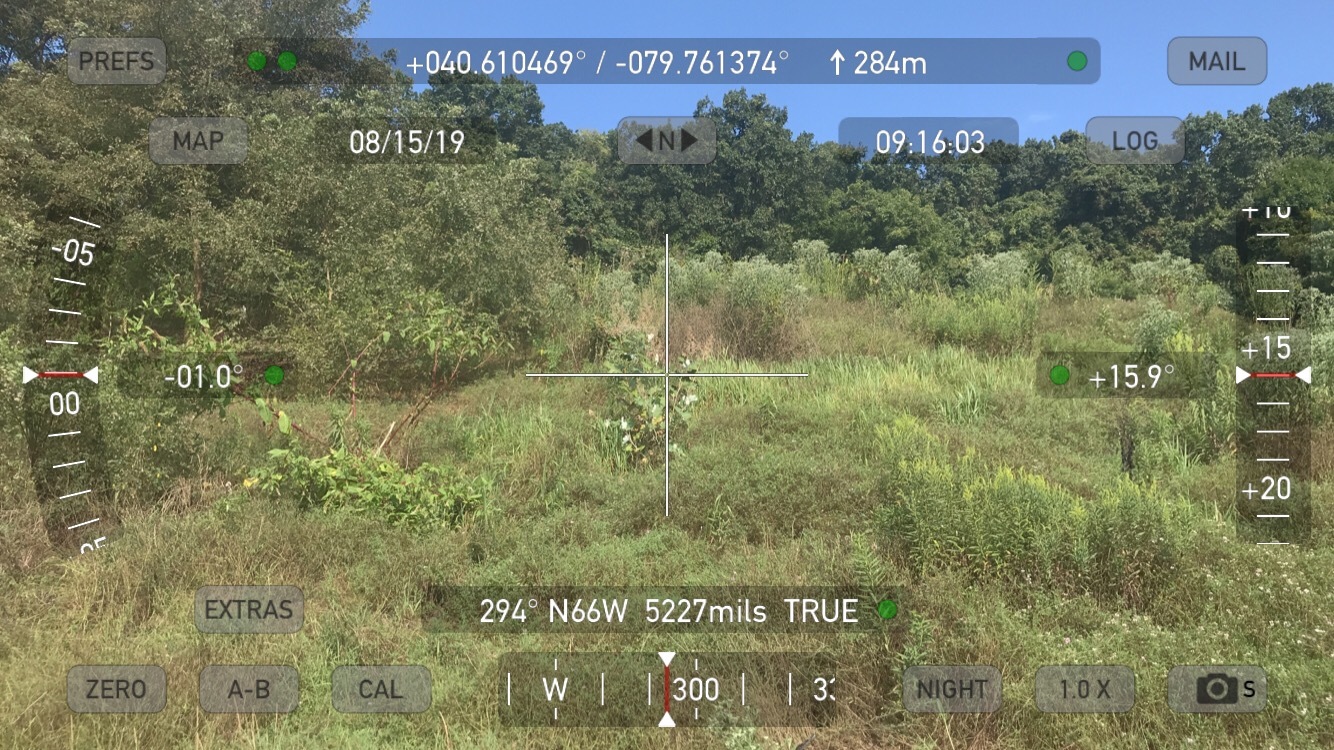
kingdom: Plantae
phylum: Tracheophyta
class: Magnoliopsida
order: Ranunculales
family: Papaveraceae
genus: Macleaya
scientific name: Macleaya cordata
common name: Plume poppy
